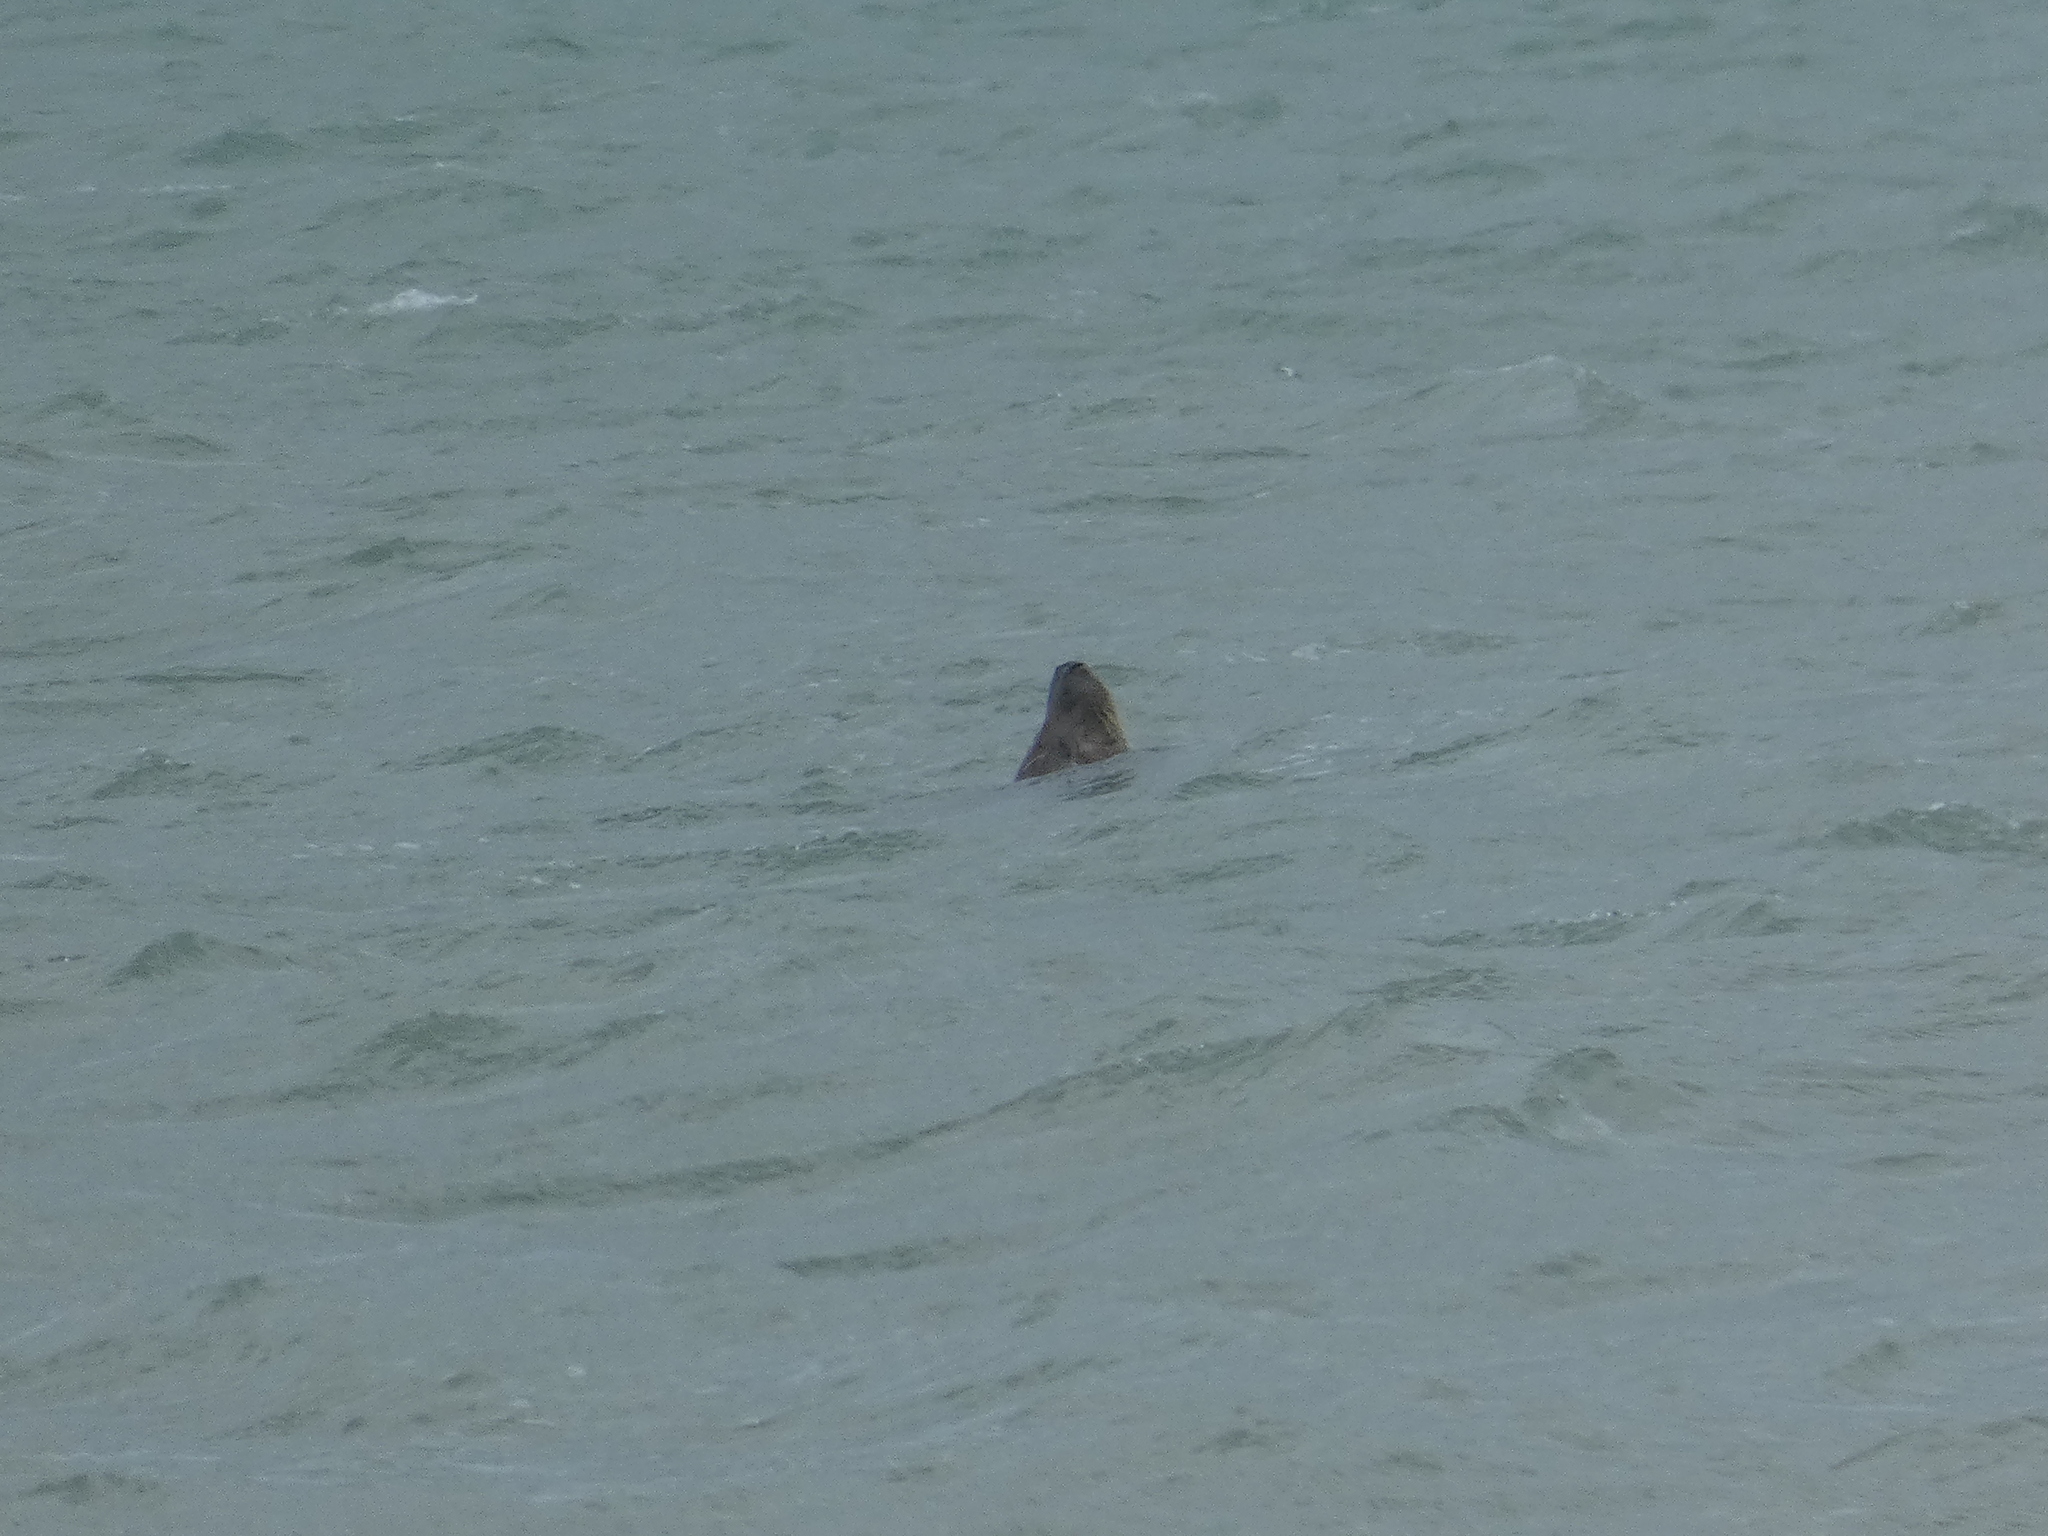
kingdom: Animalia
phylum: Chordata
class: Mammalia
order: Carnivora
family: Phocidae
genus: Halichoerus
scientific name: Halichoerus grypus
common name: Grey seal
